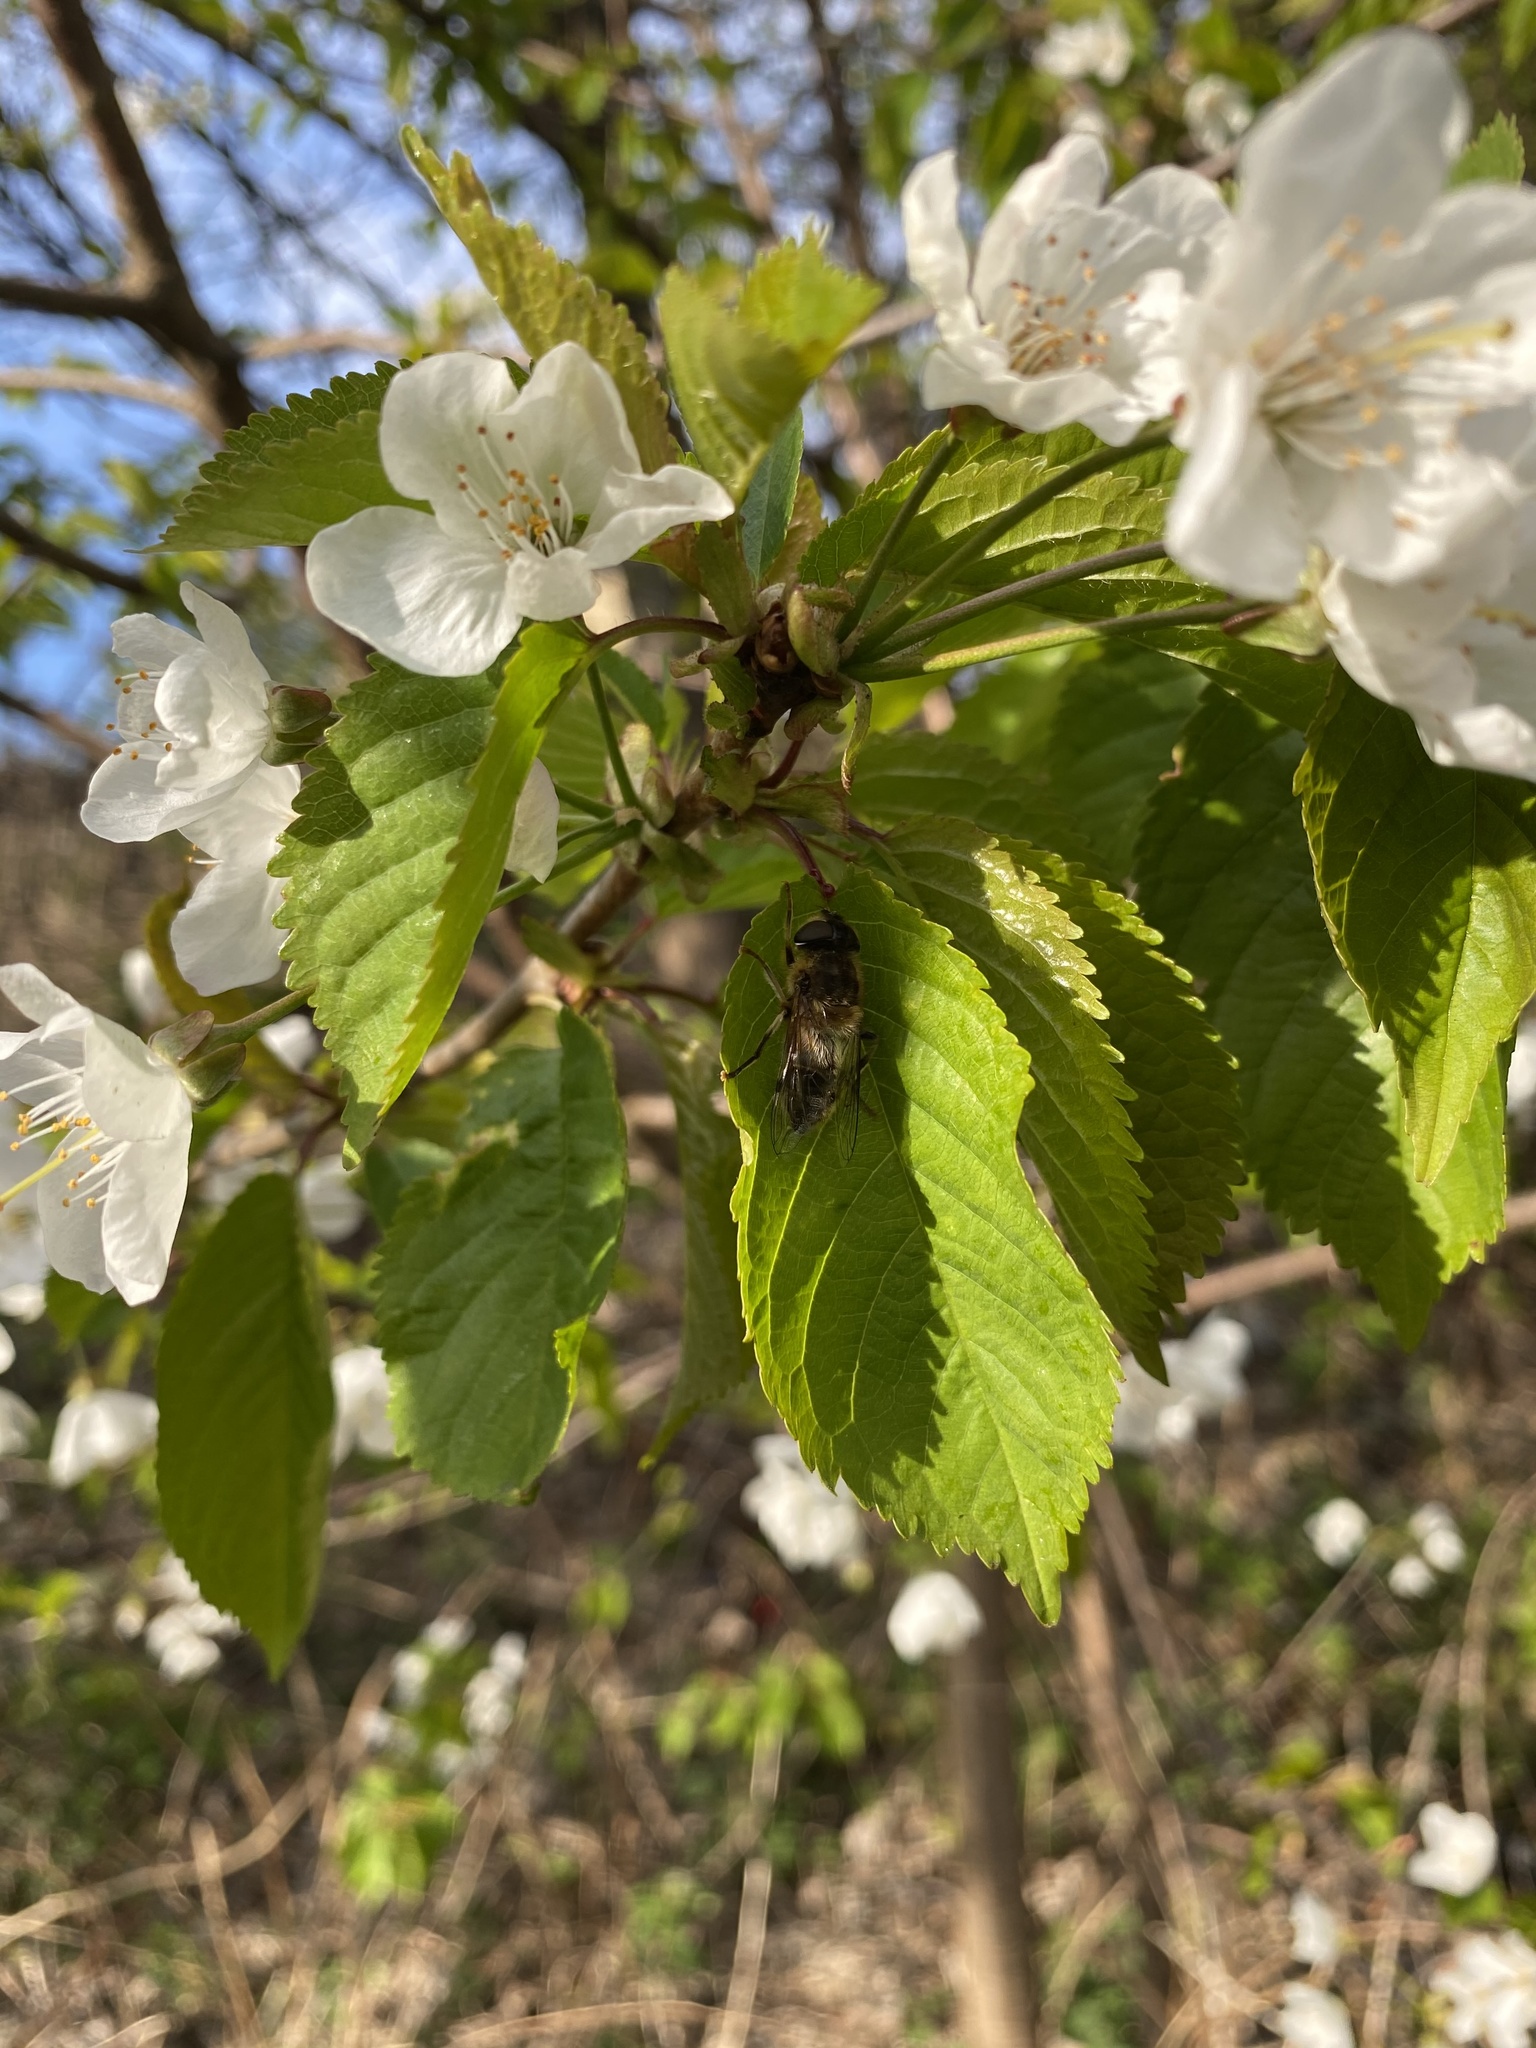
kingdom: Animalia
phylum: Arthropoda
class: Insecta
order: Diptera
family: Syrphidae
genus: Eristalis
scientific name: Eristalis pertinax
